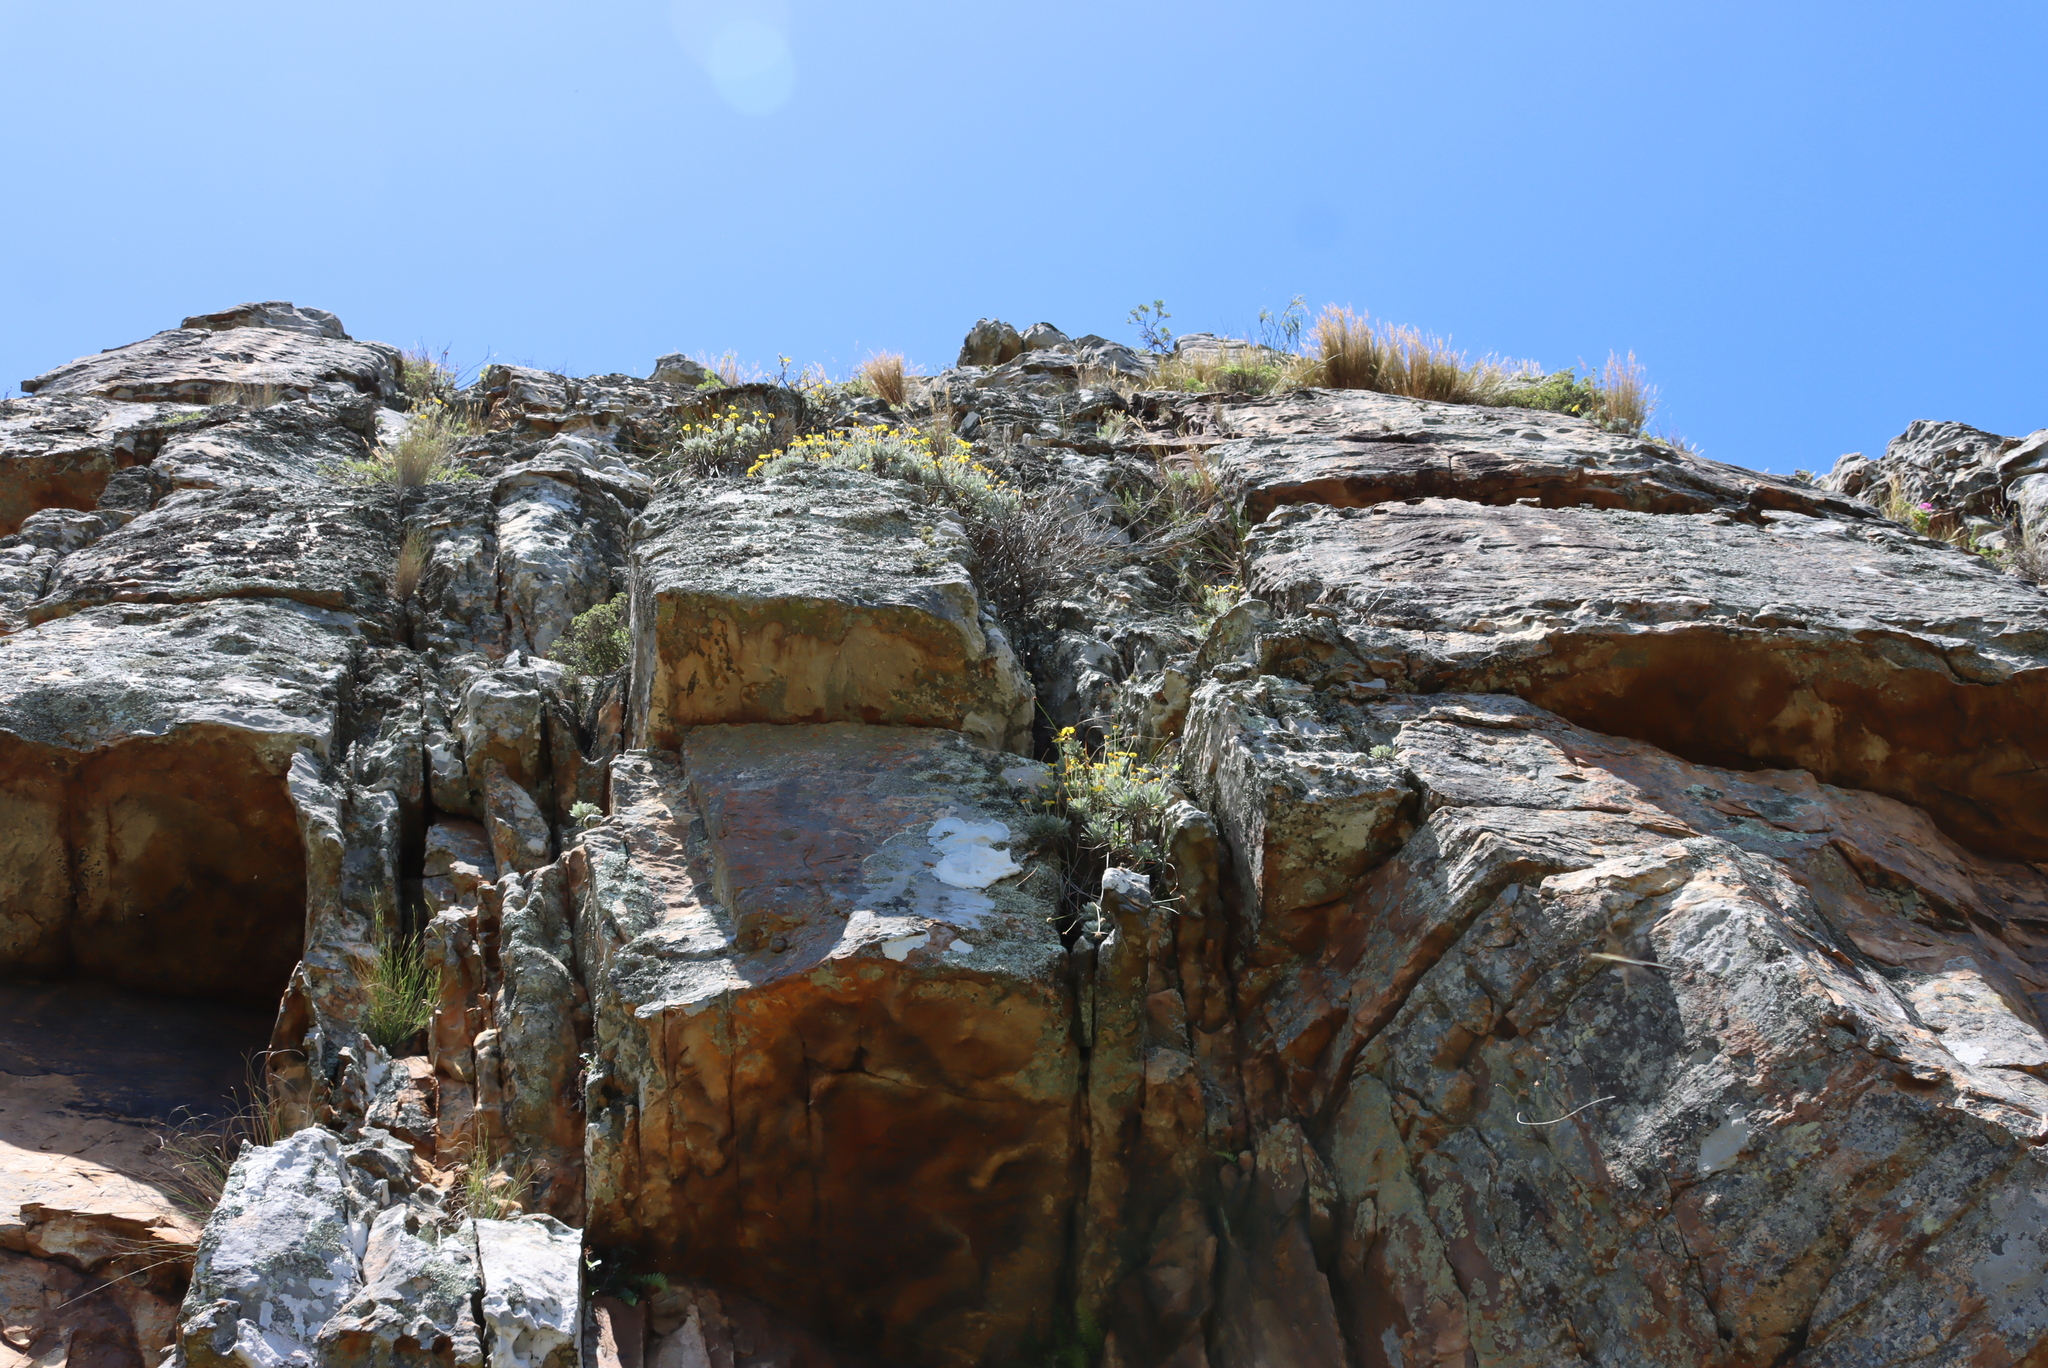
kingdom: Plantae
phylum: Tracheophyta
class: Magnoliopsida
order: Asterales
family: Asteraceae
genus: Euryops
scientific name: Euryops pectinatus
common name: Gray-leaf euryops
